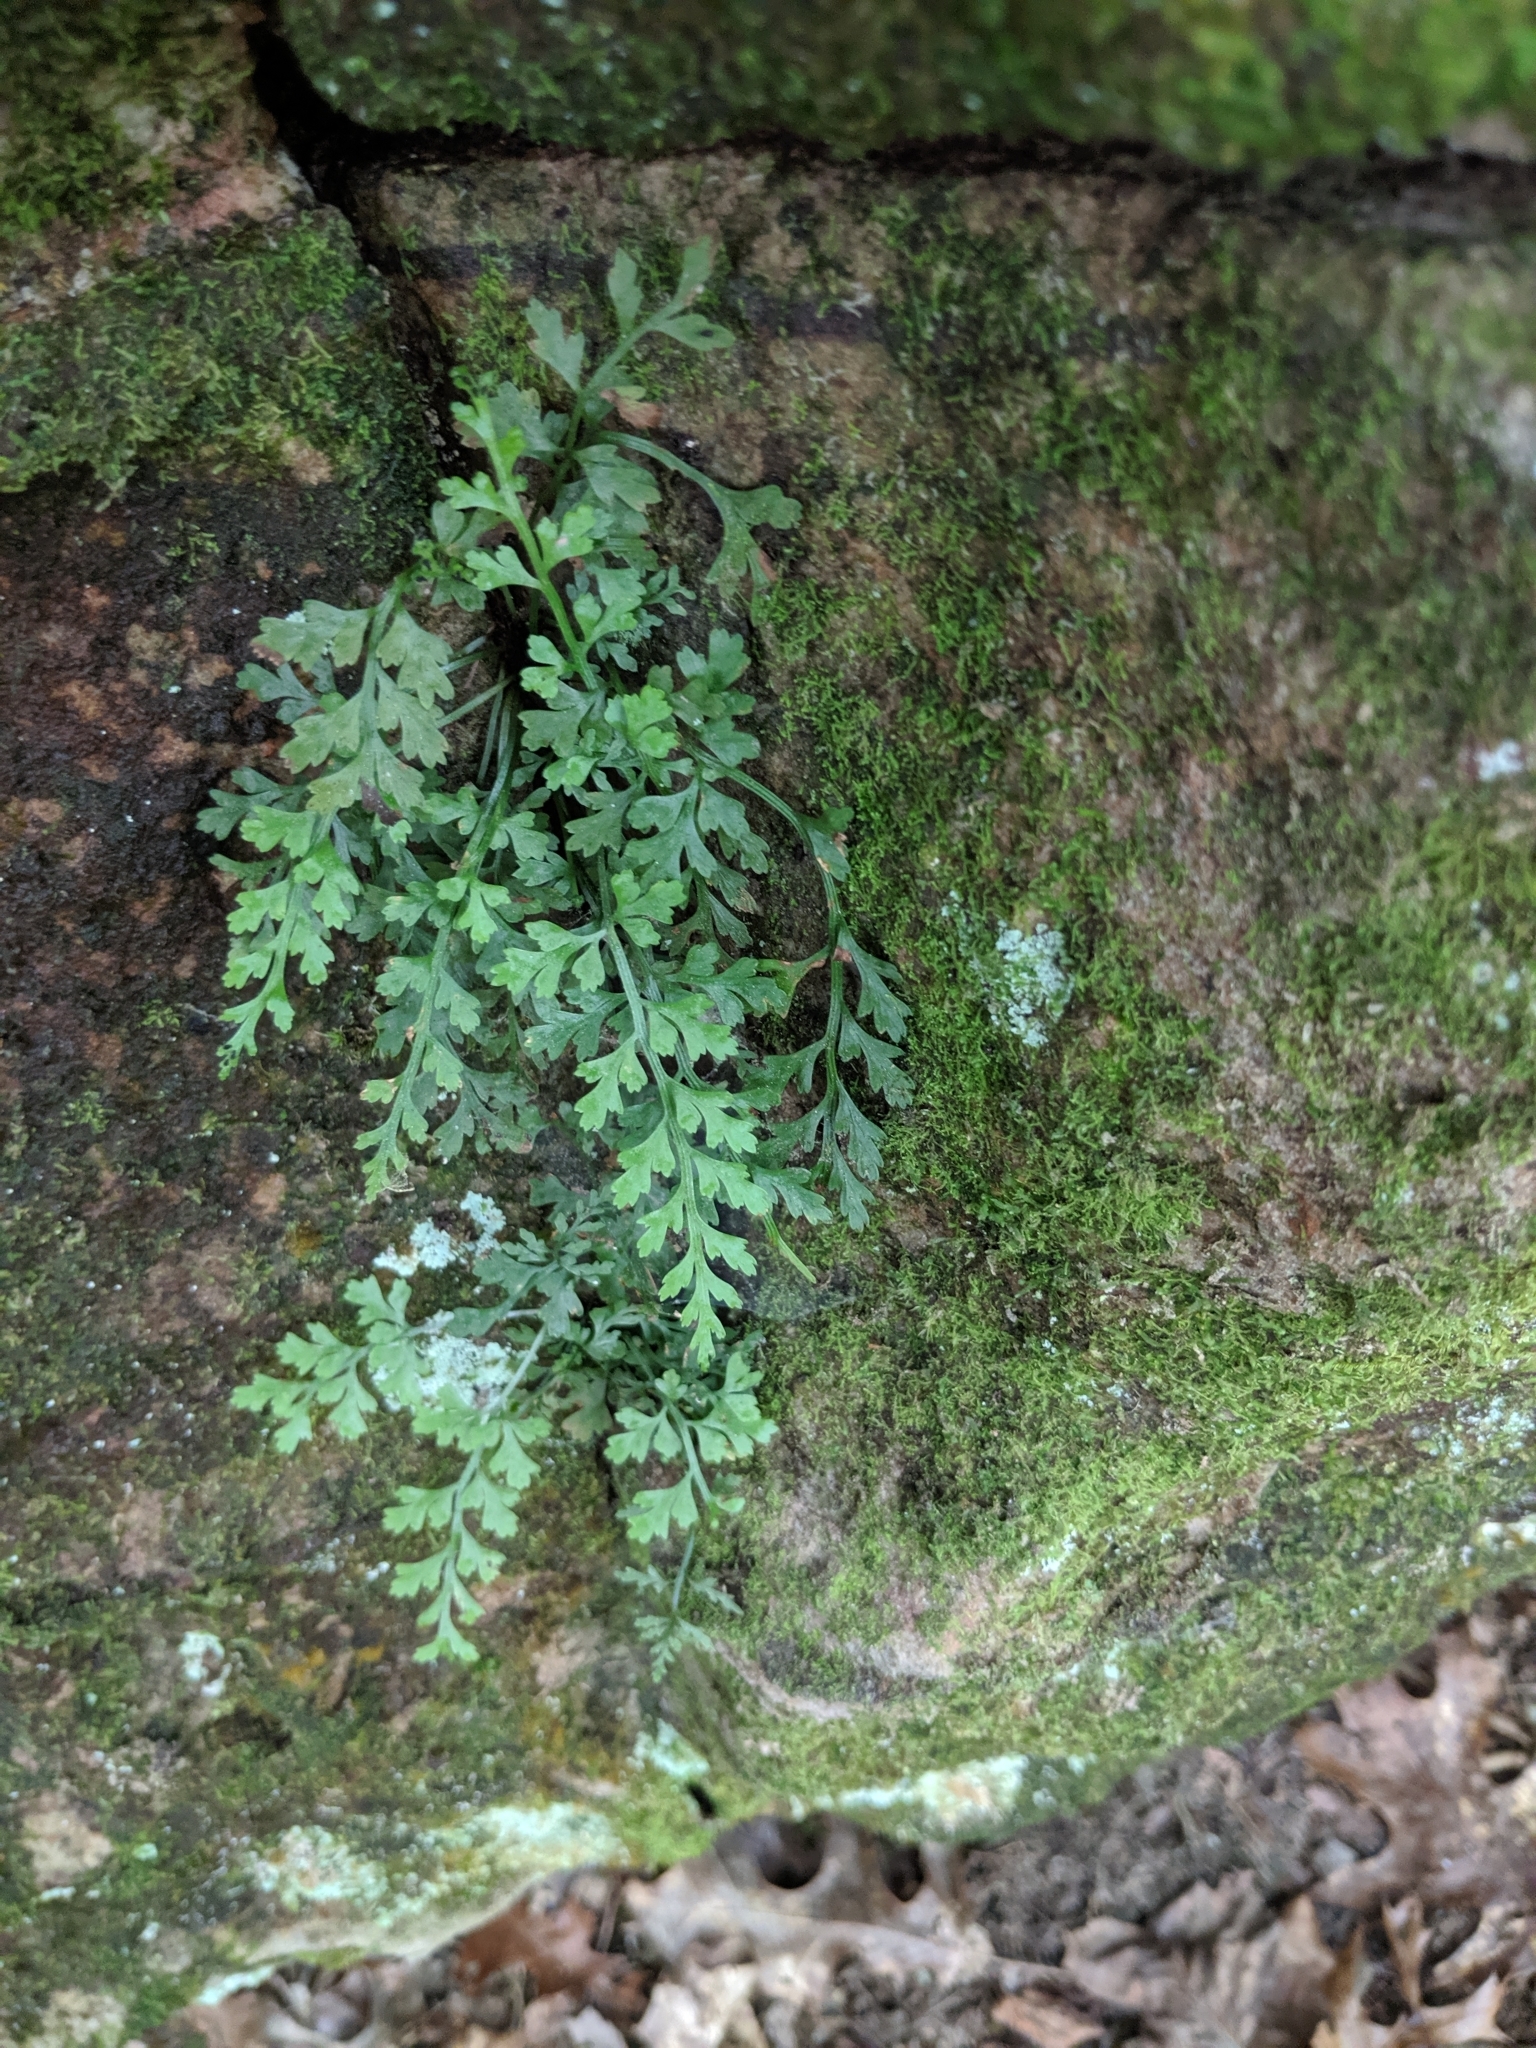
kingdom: Plantae
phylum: Tracheophyta
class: Polypodiopsida
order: Polypodiales
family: Aspleniaceae
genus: Asplenium
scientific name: Asplenium montanum
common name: Mountain spleenwort
